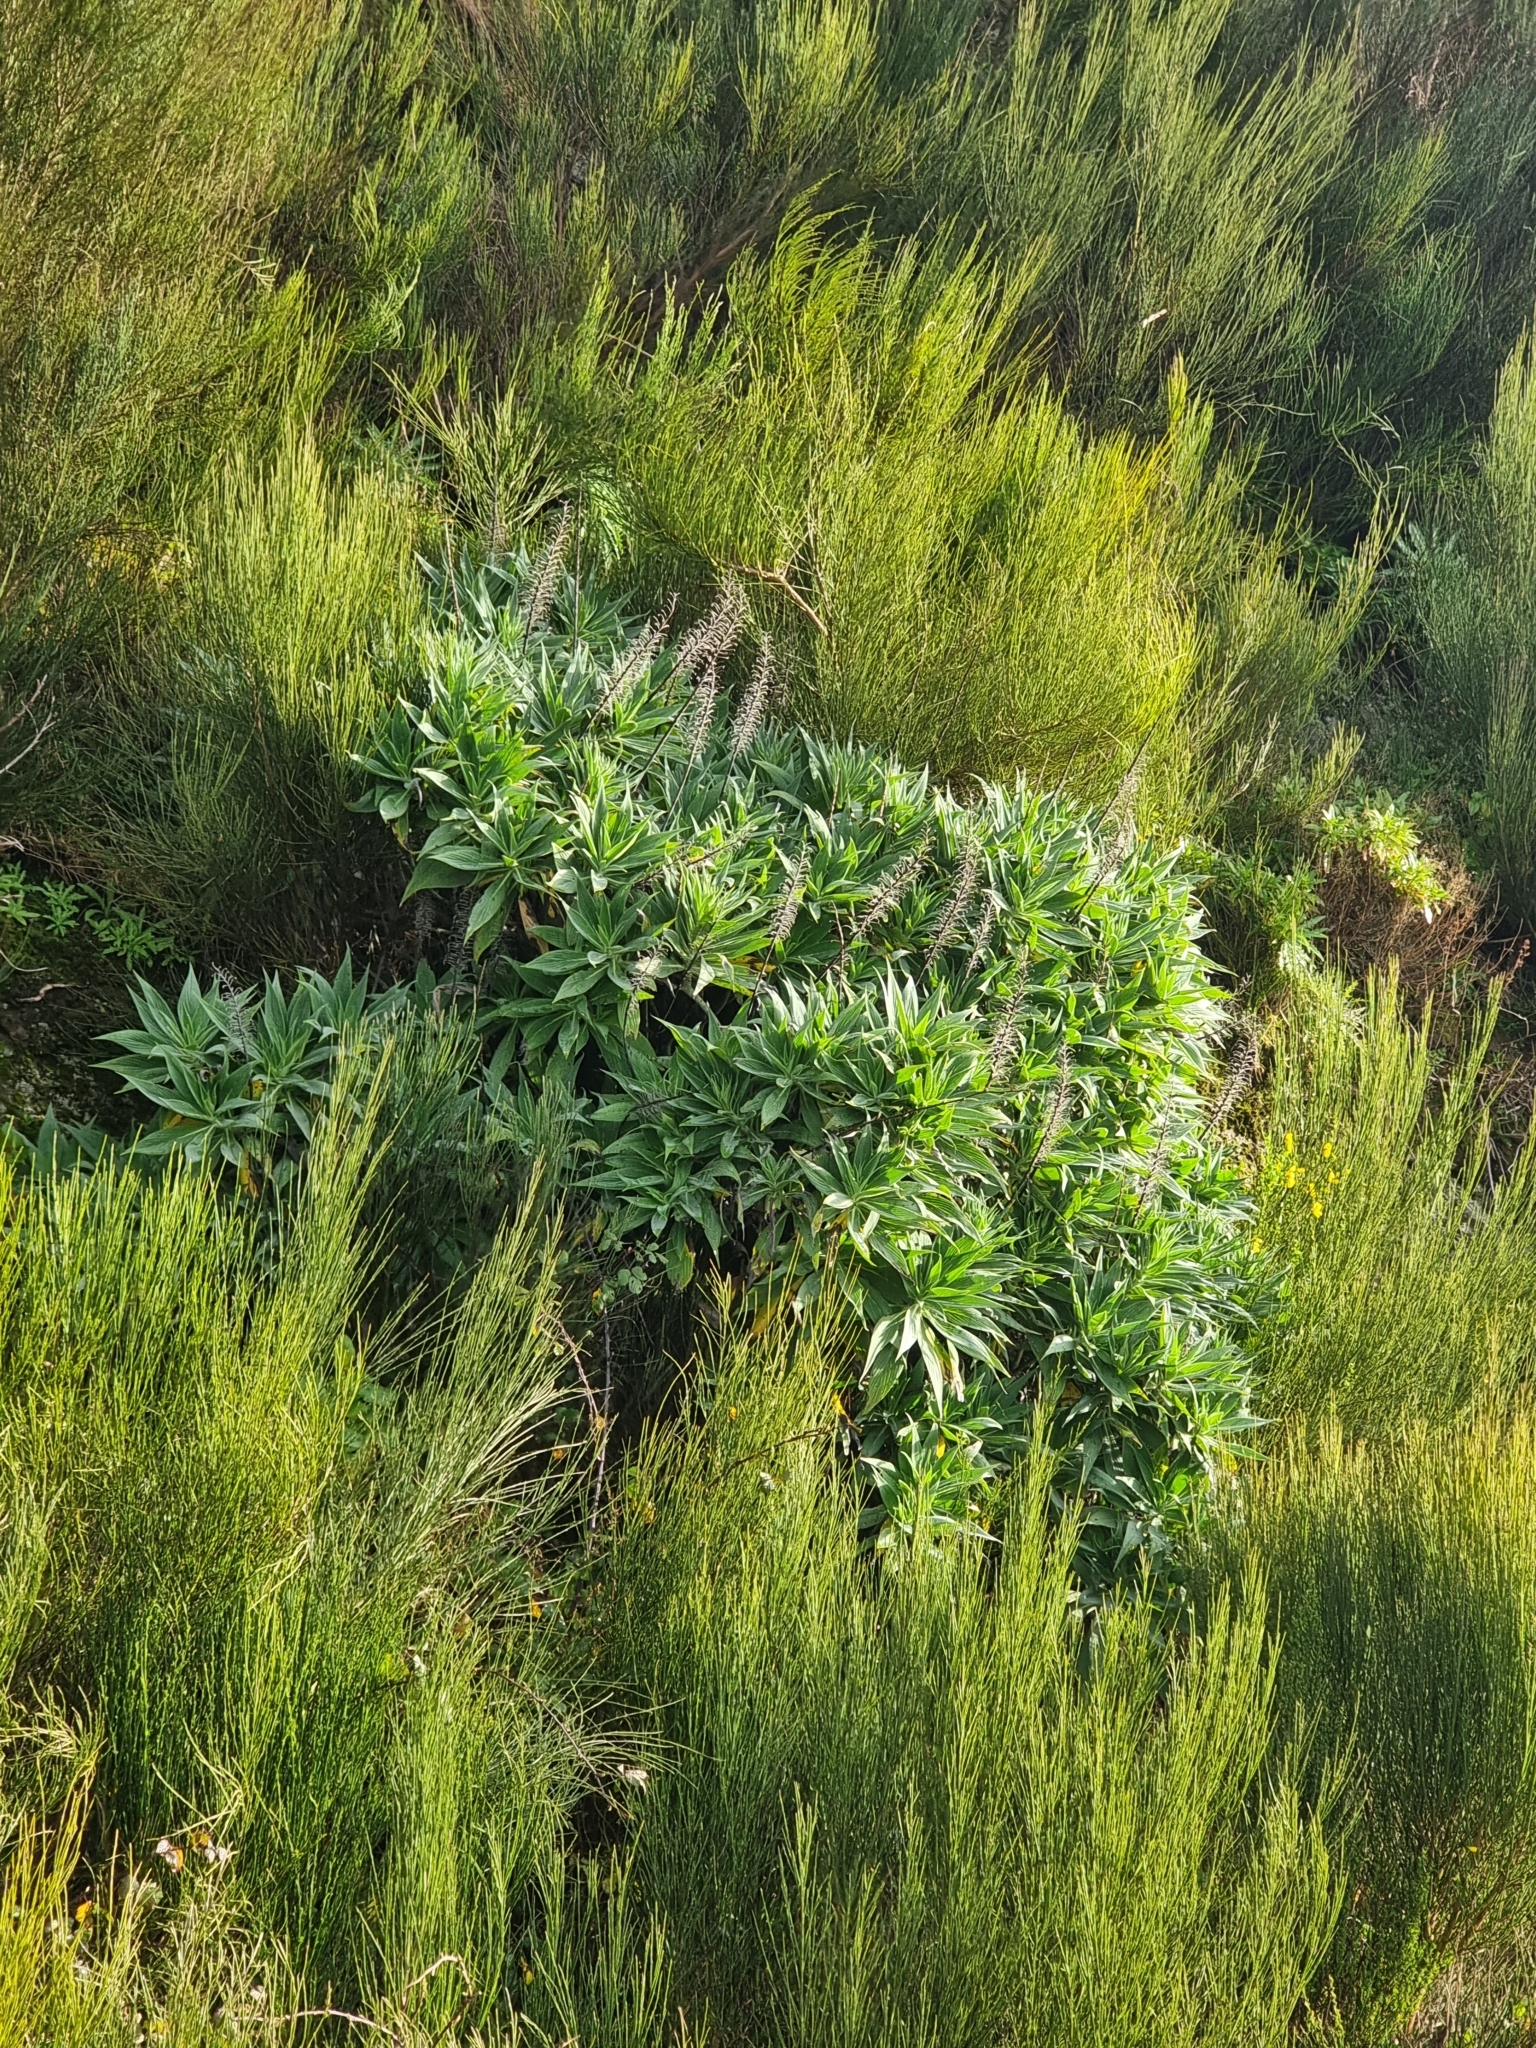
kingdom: Plantae
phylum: Tracheophyta
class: Magnoliopsida
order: Boraginales
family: Boraginaceae
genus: Echium
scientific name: Echium candicans
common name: Pride of madeira
